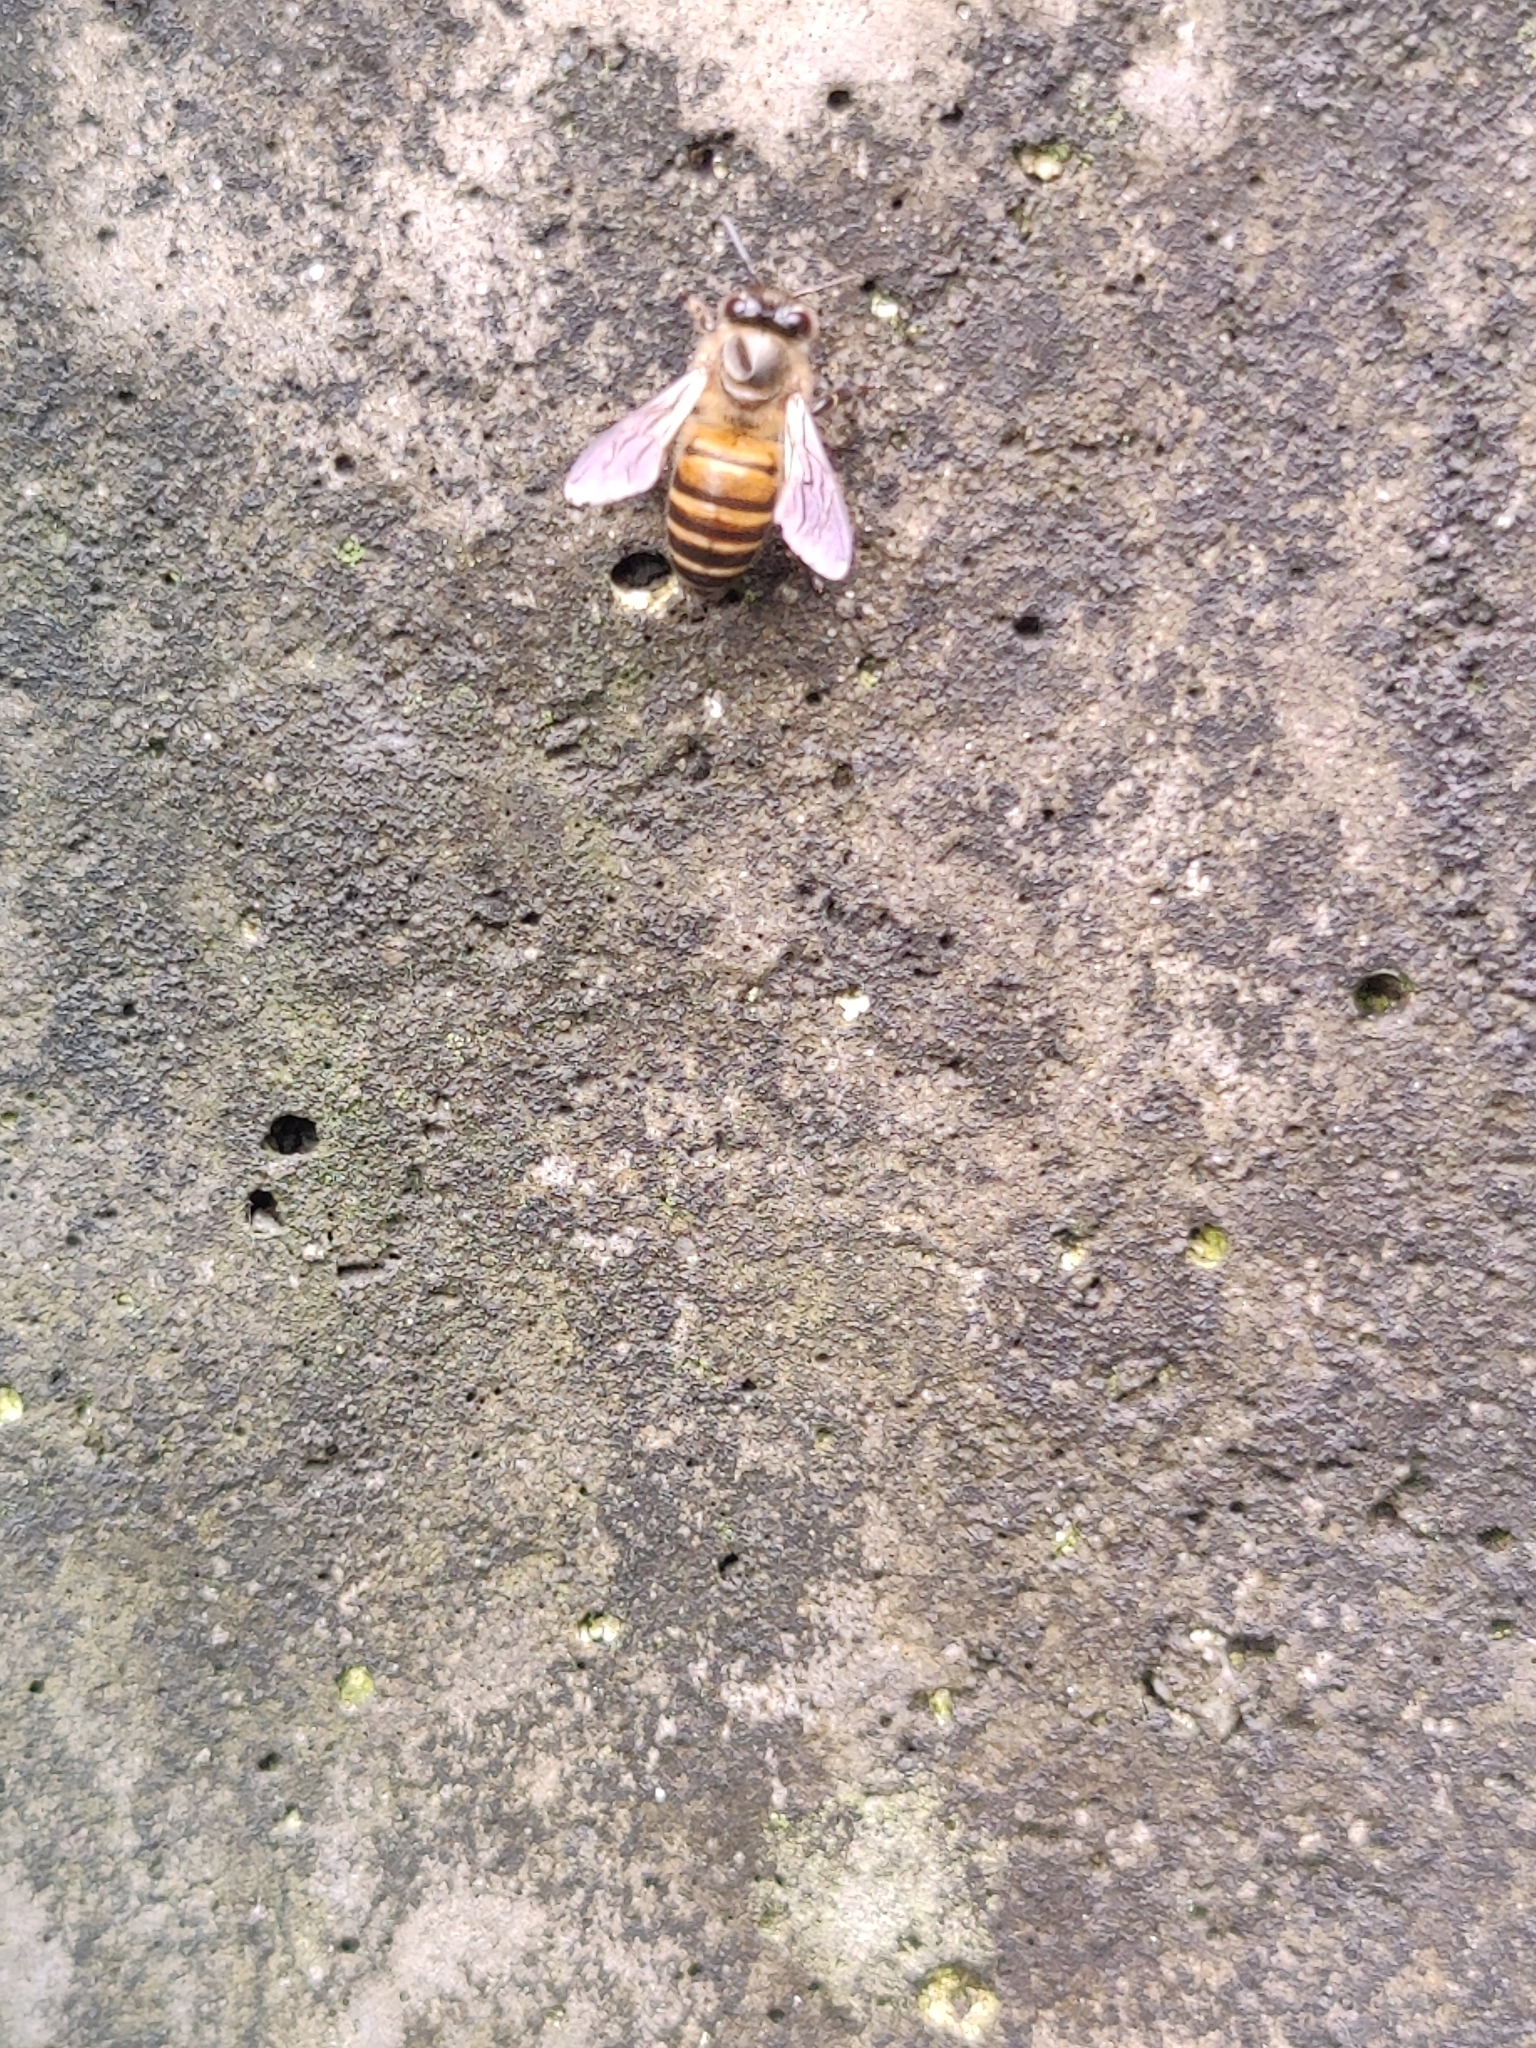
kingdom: Animalia
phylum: Arthropoda
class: Insecta
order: Hymenoptera
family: Apidae
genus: Apis
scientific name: Apis cerana
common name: Honey bee
